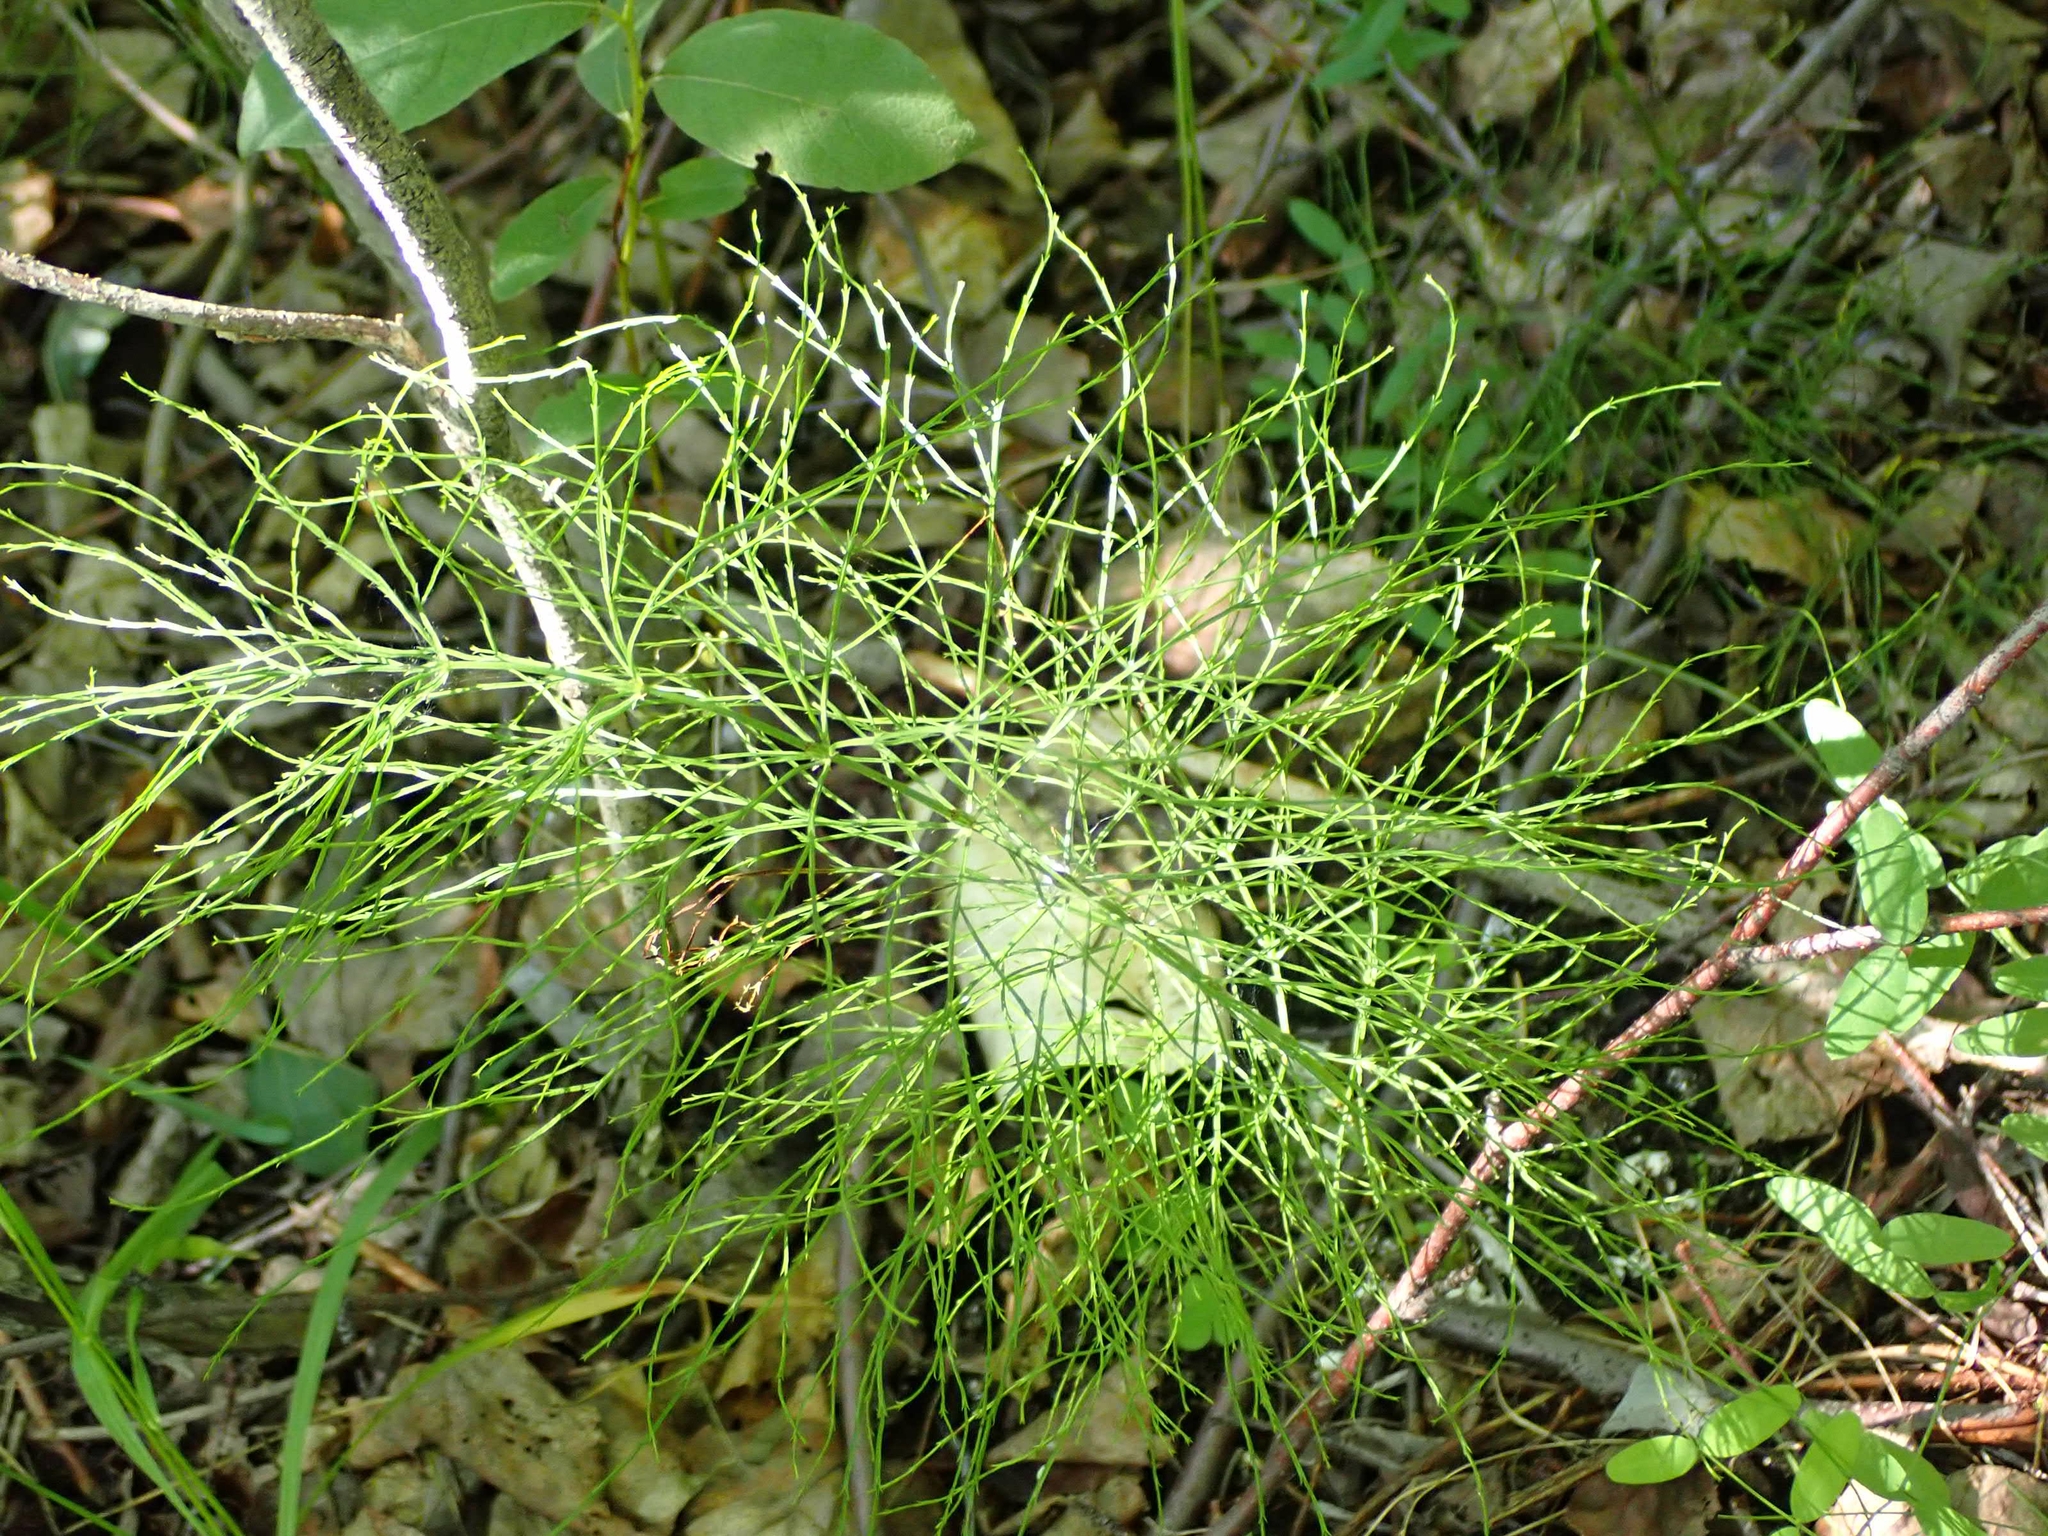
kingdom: Plantae
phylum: Tracheophyta
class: Polypodiopsida
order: Equisetales
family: Equisetaceae
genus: Equisetum
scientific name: Equisetum sylvaticum
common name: Wood horsetail
